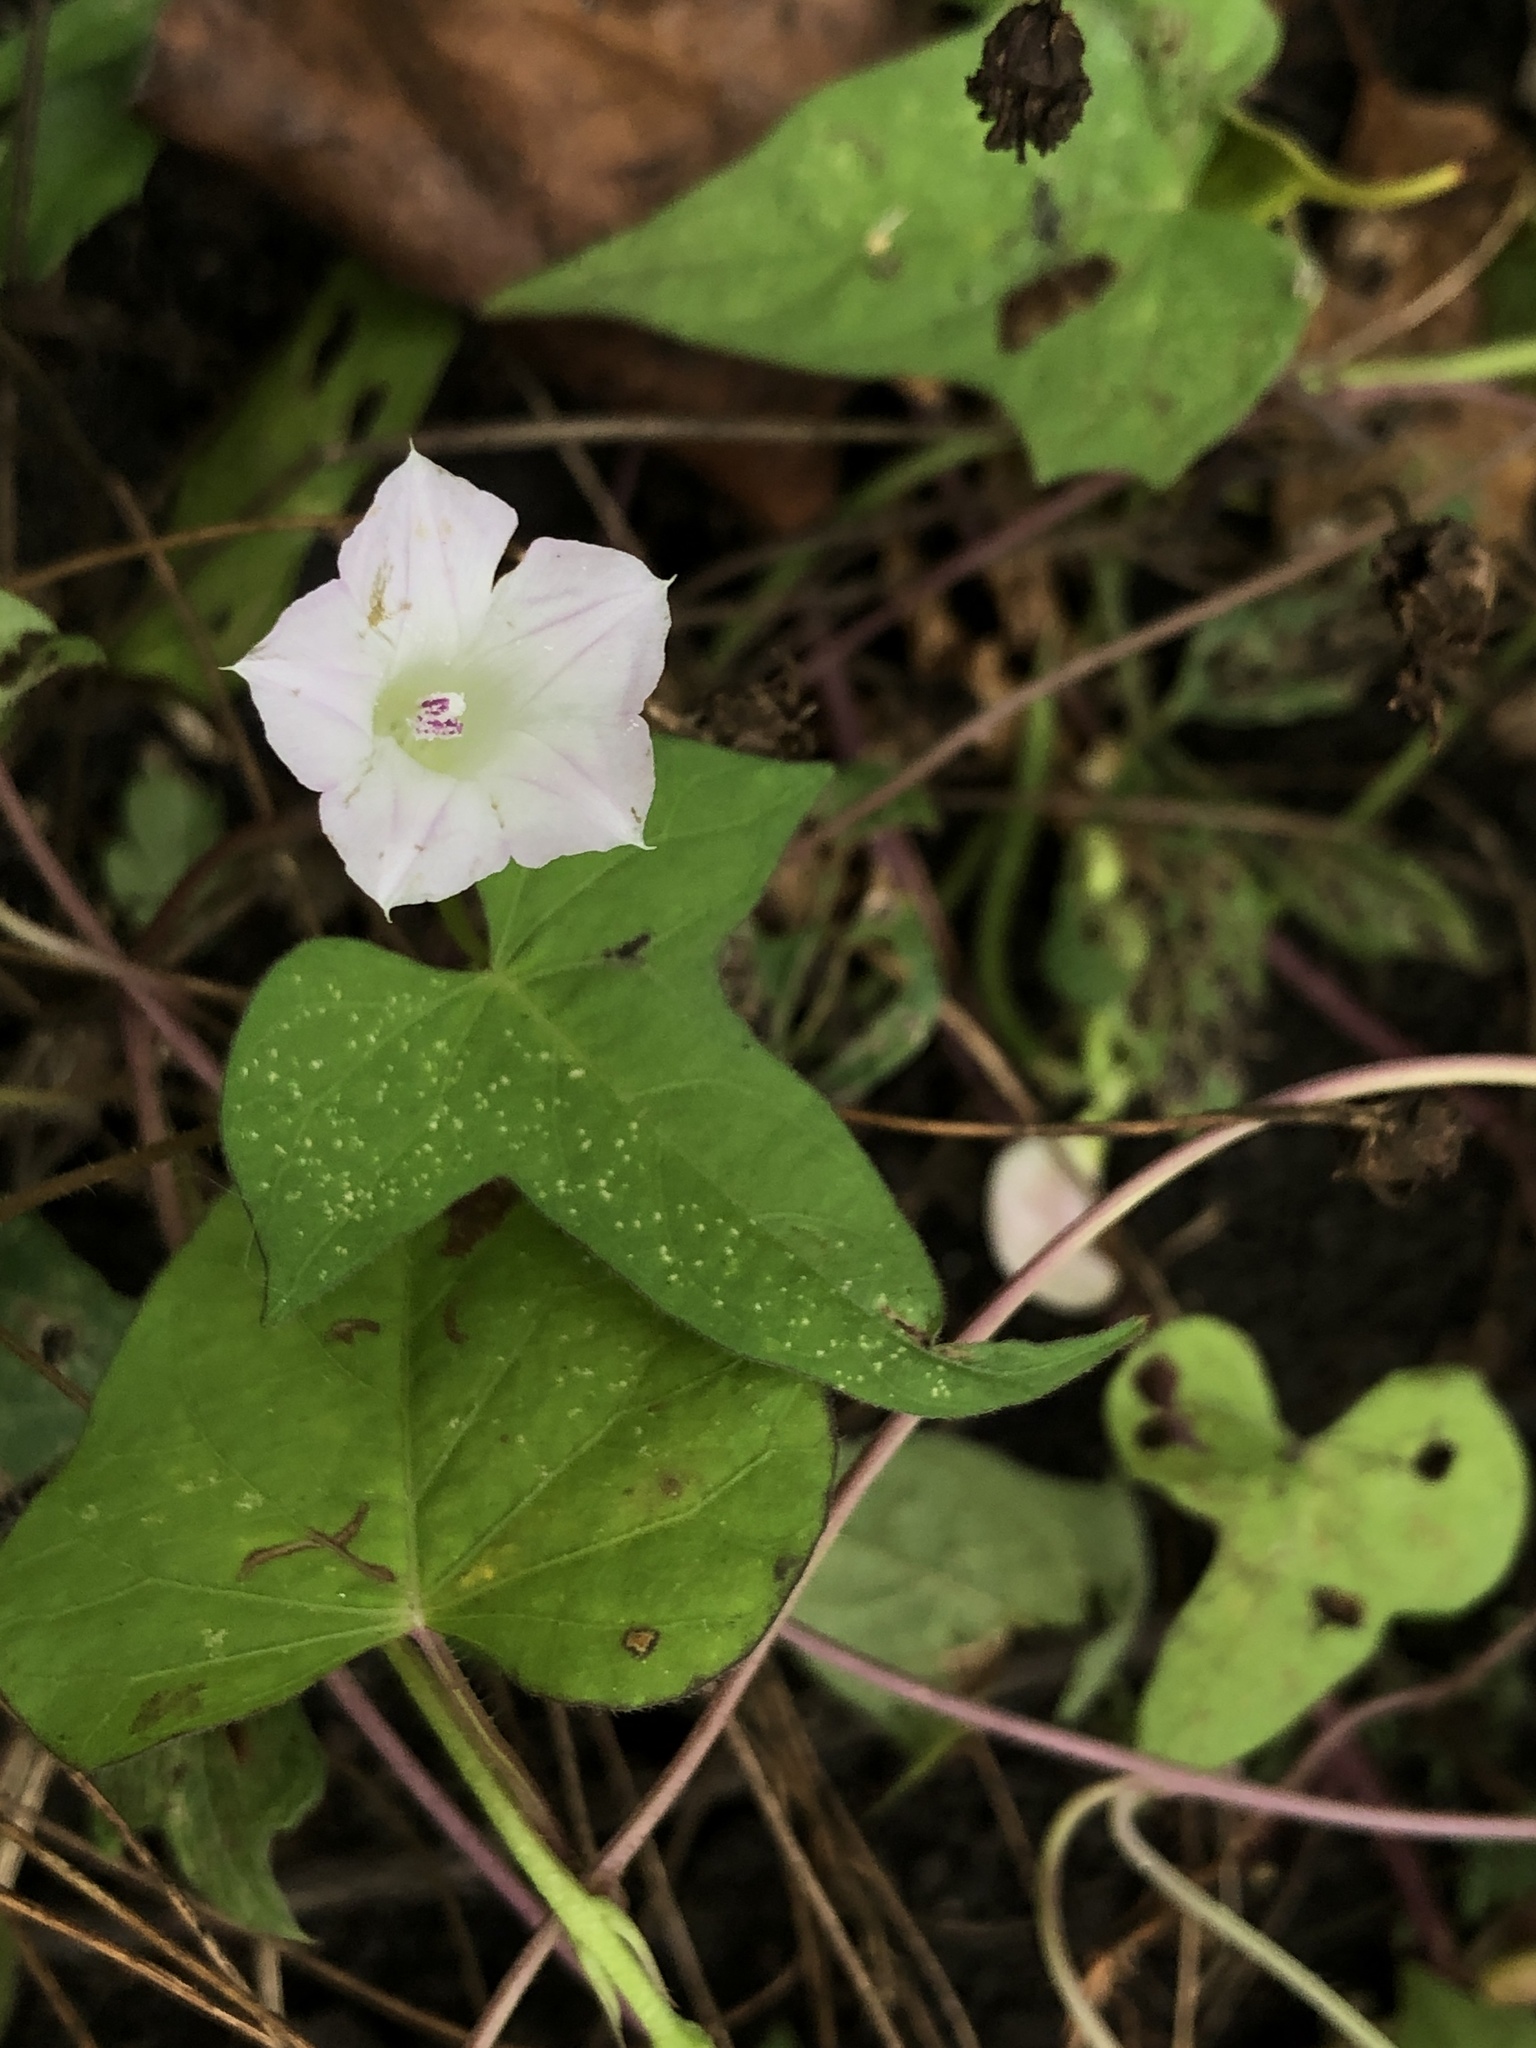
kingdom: Plantae
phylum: Tracheophyta
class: Magnoliopsida
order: Solanales
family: Convolvulaceae
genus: Ipomoea
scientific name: Ipomoea lacunosa
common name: White morning-glory
